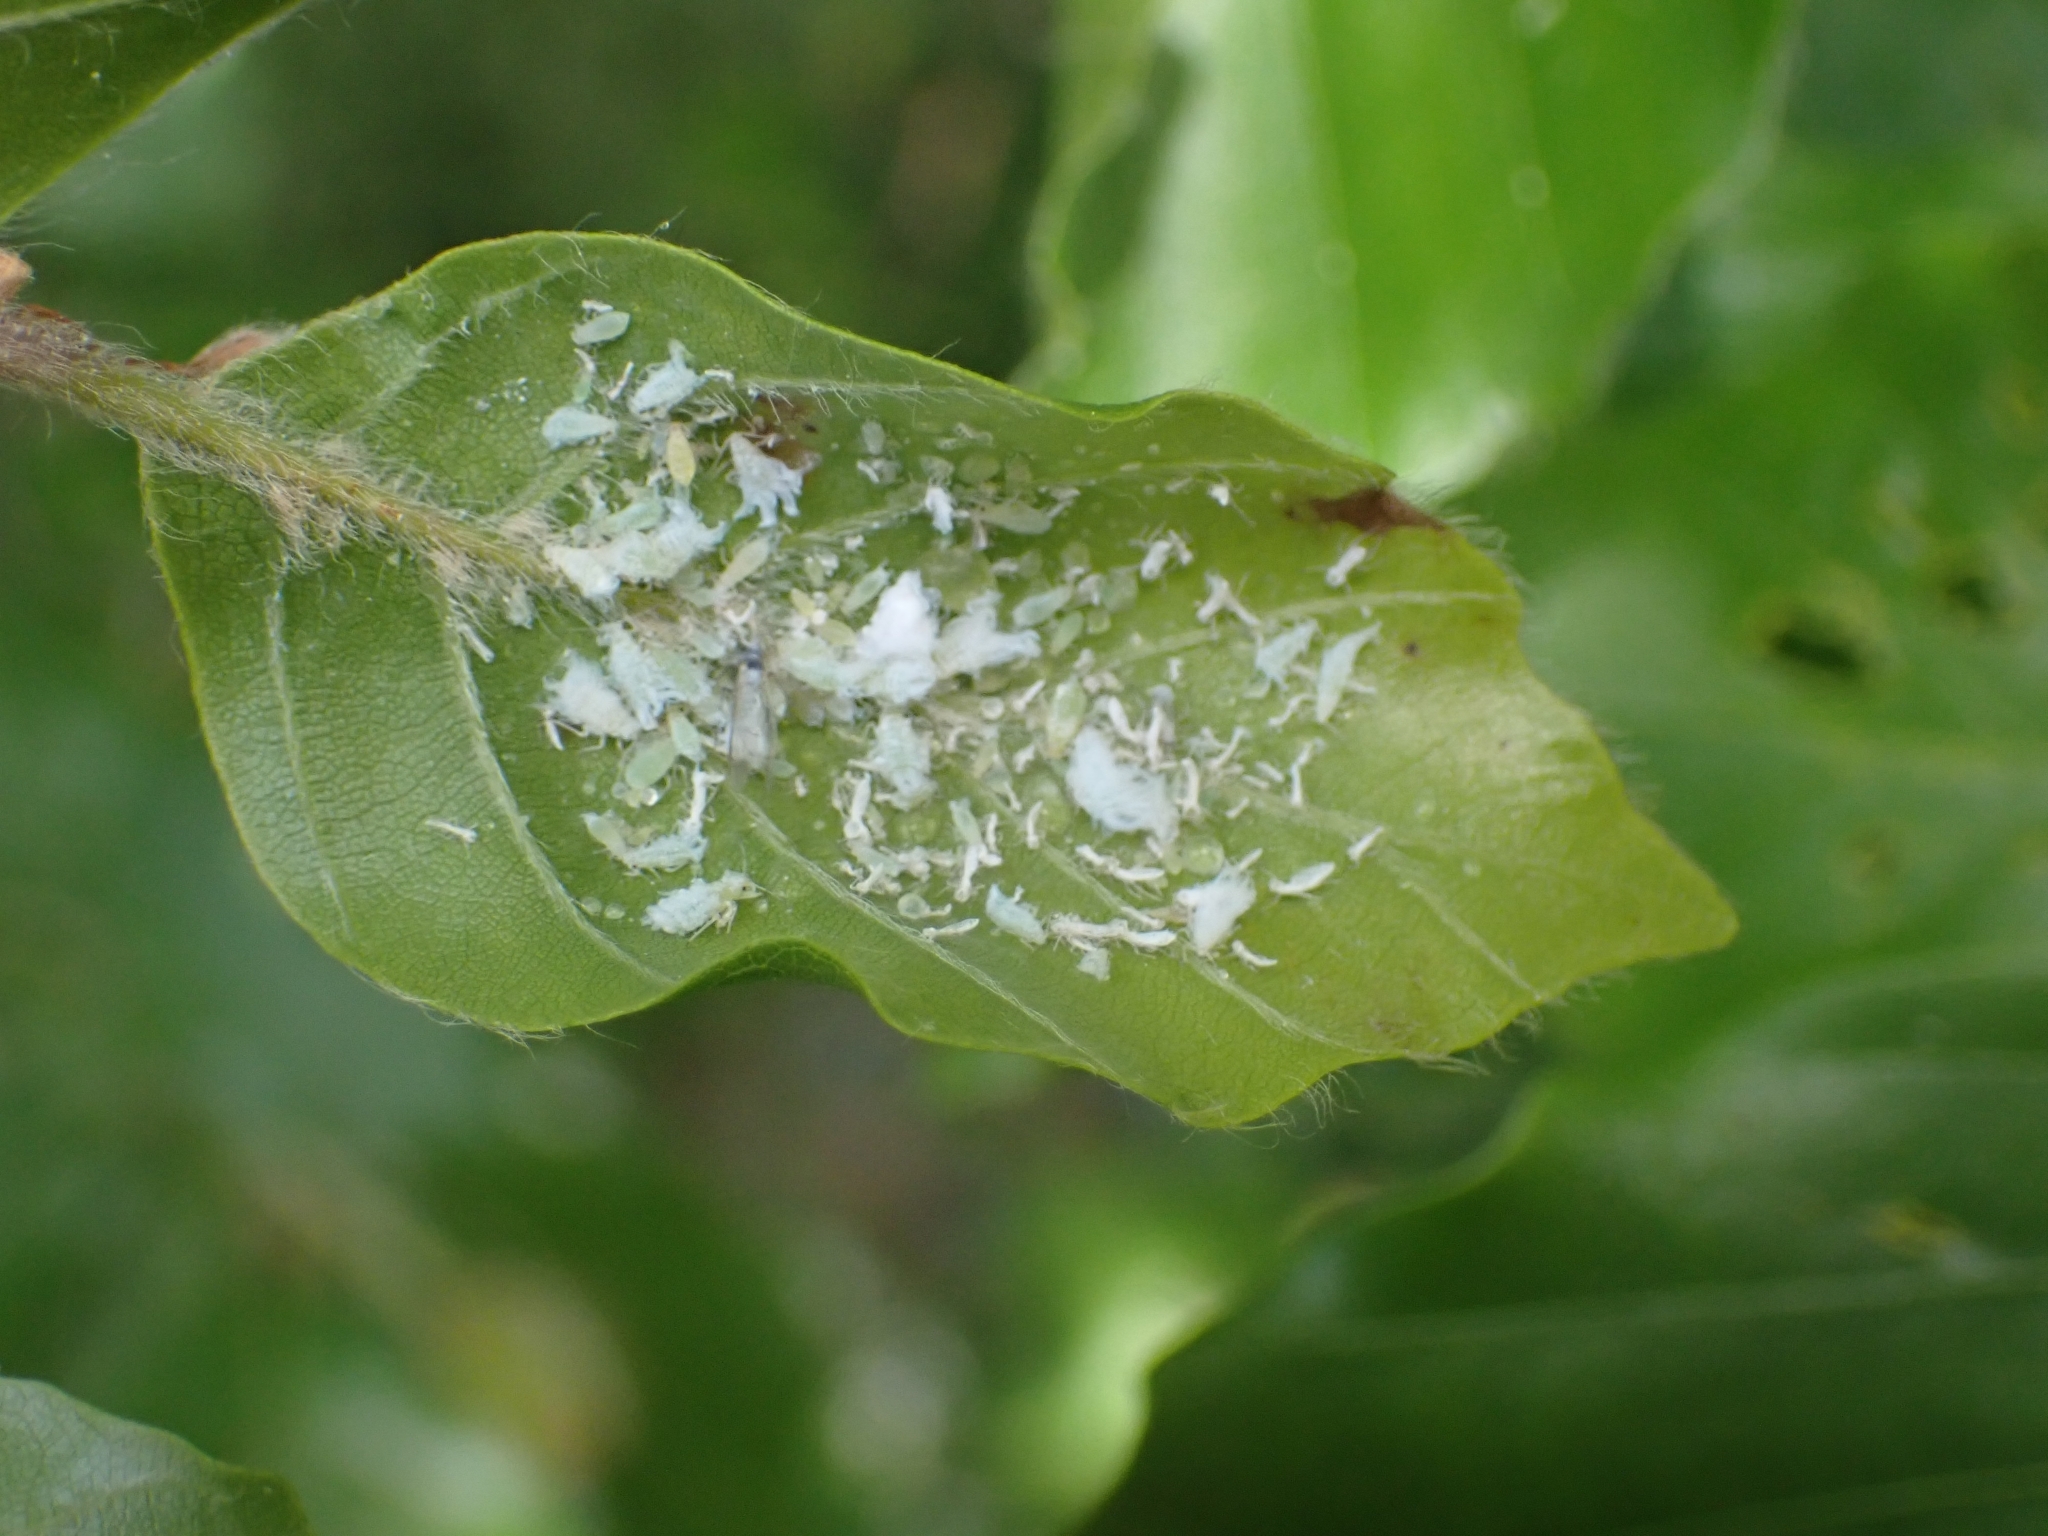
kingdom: Animalia
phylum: Arthropoda
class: Insecta
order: Hemiptera
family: Aphididae
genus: Phyllaphis
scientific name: Phyllaphis fagi
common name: Beech aphid
